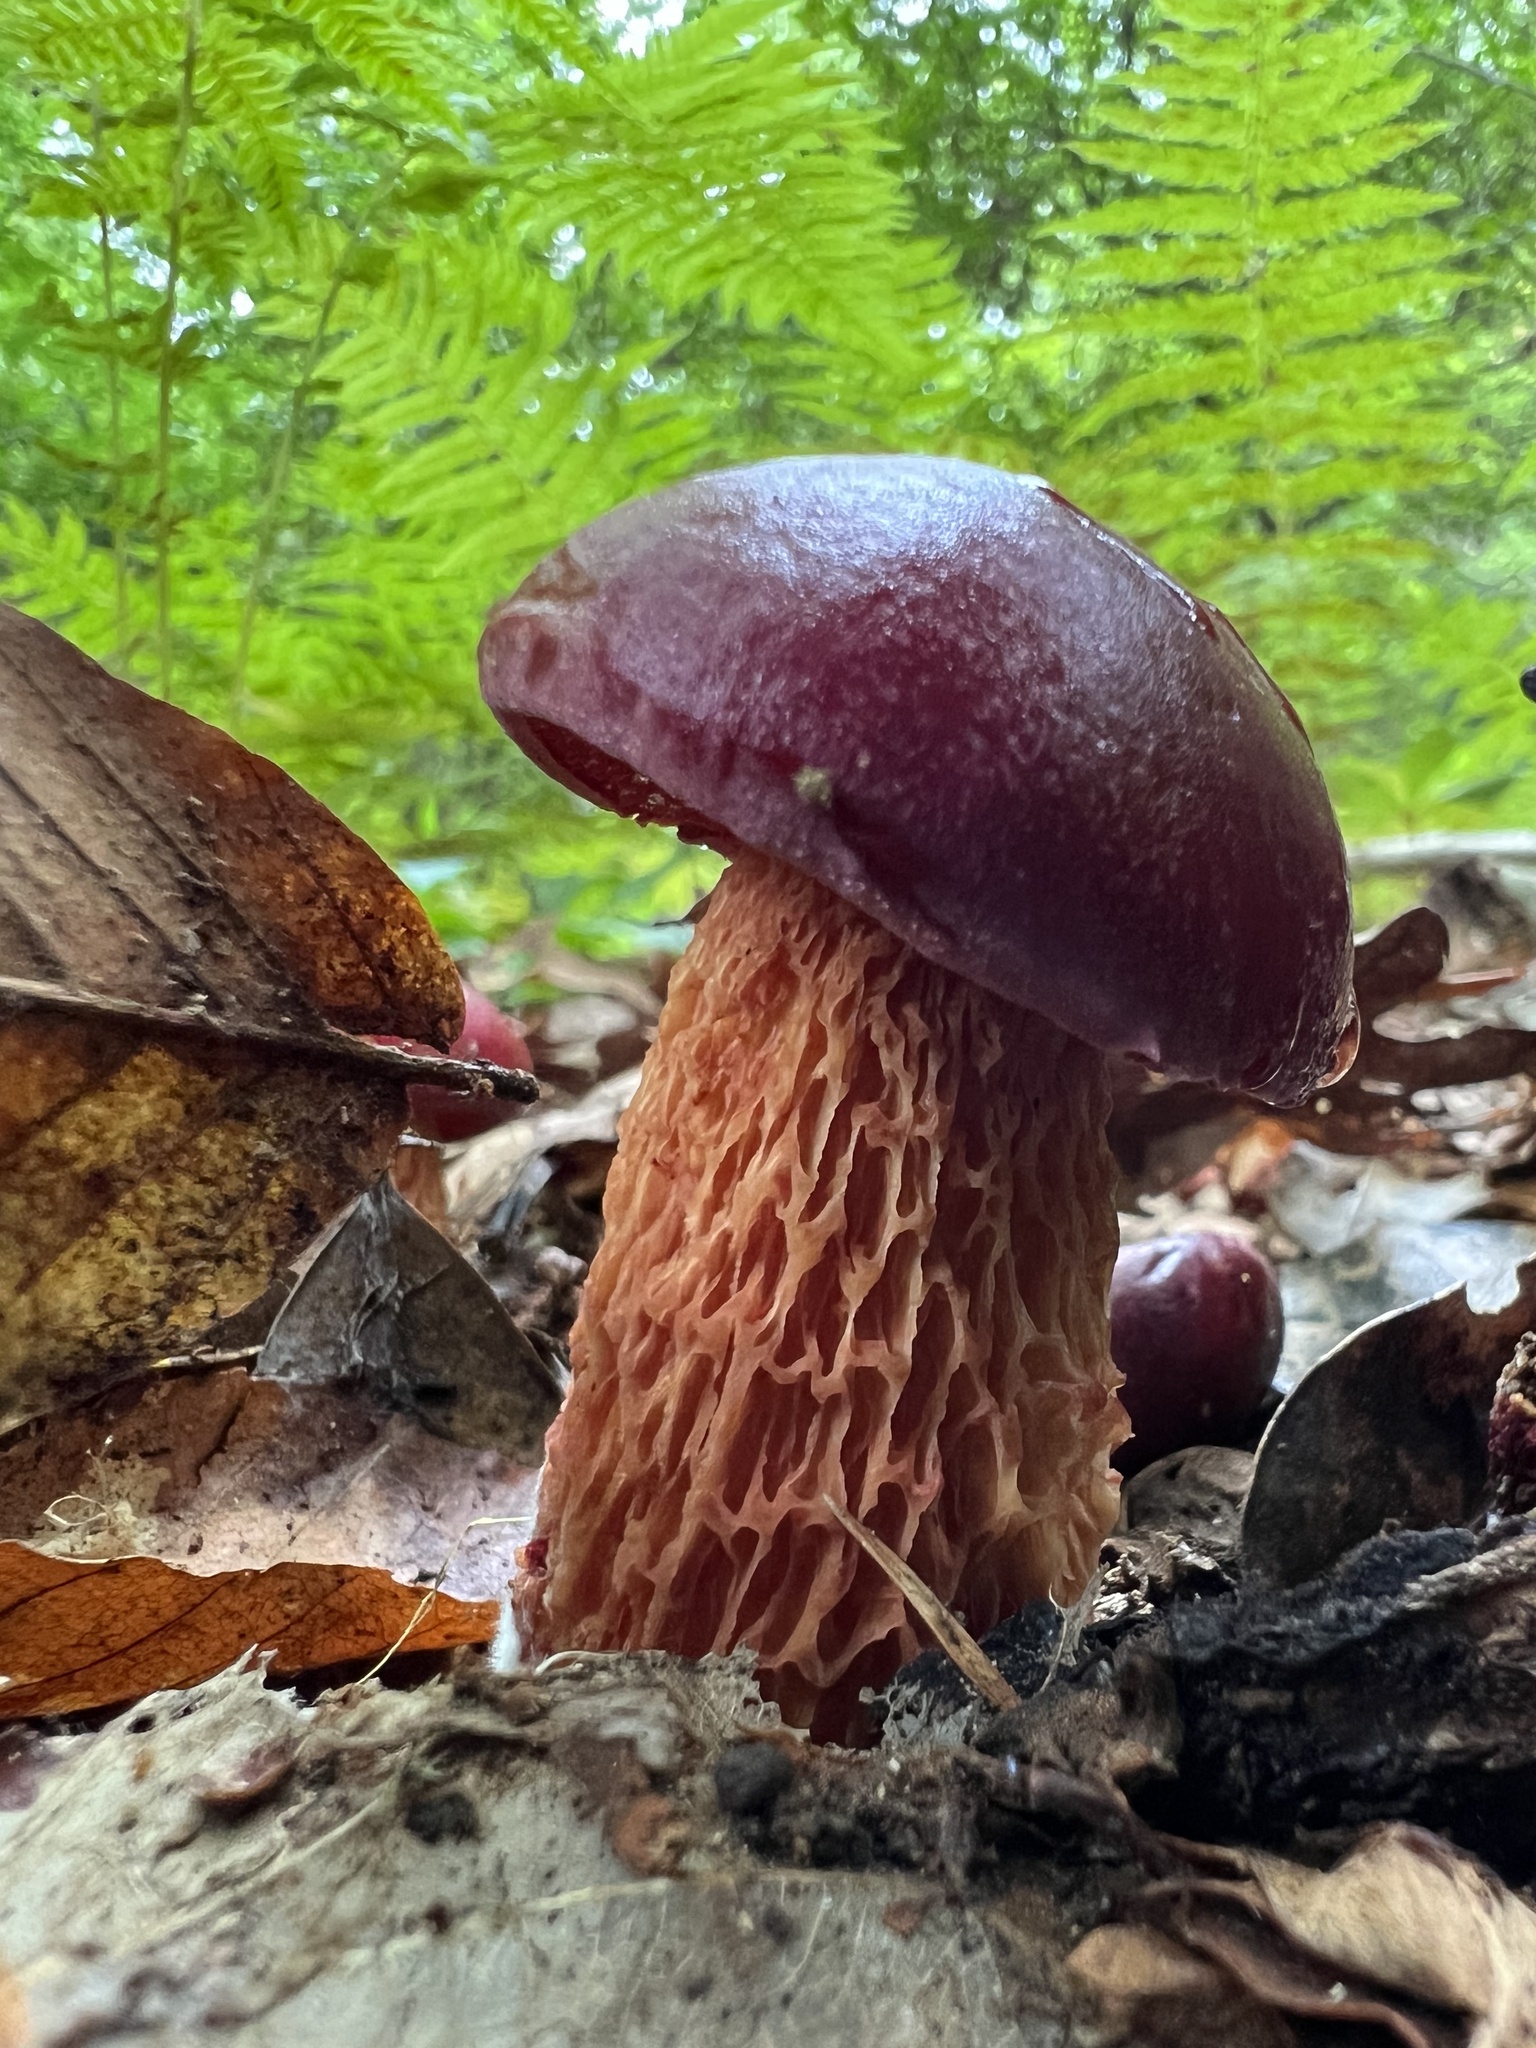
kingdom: Fungi
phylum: Basidiomycota
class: Agaricomycetes
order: Boletales
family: Boletaceae
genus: Butyriboletus
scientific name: Butyriboletus frostii
